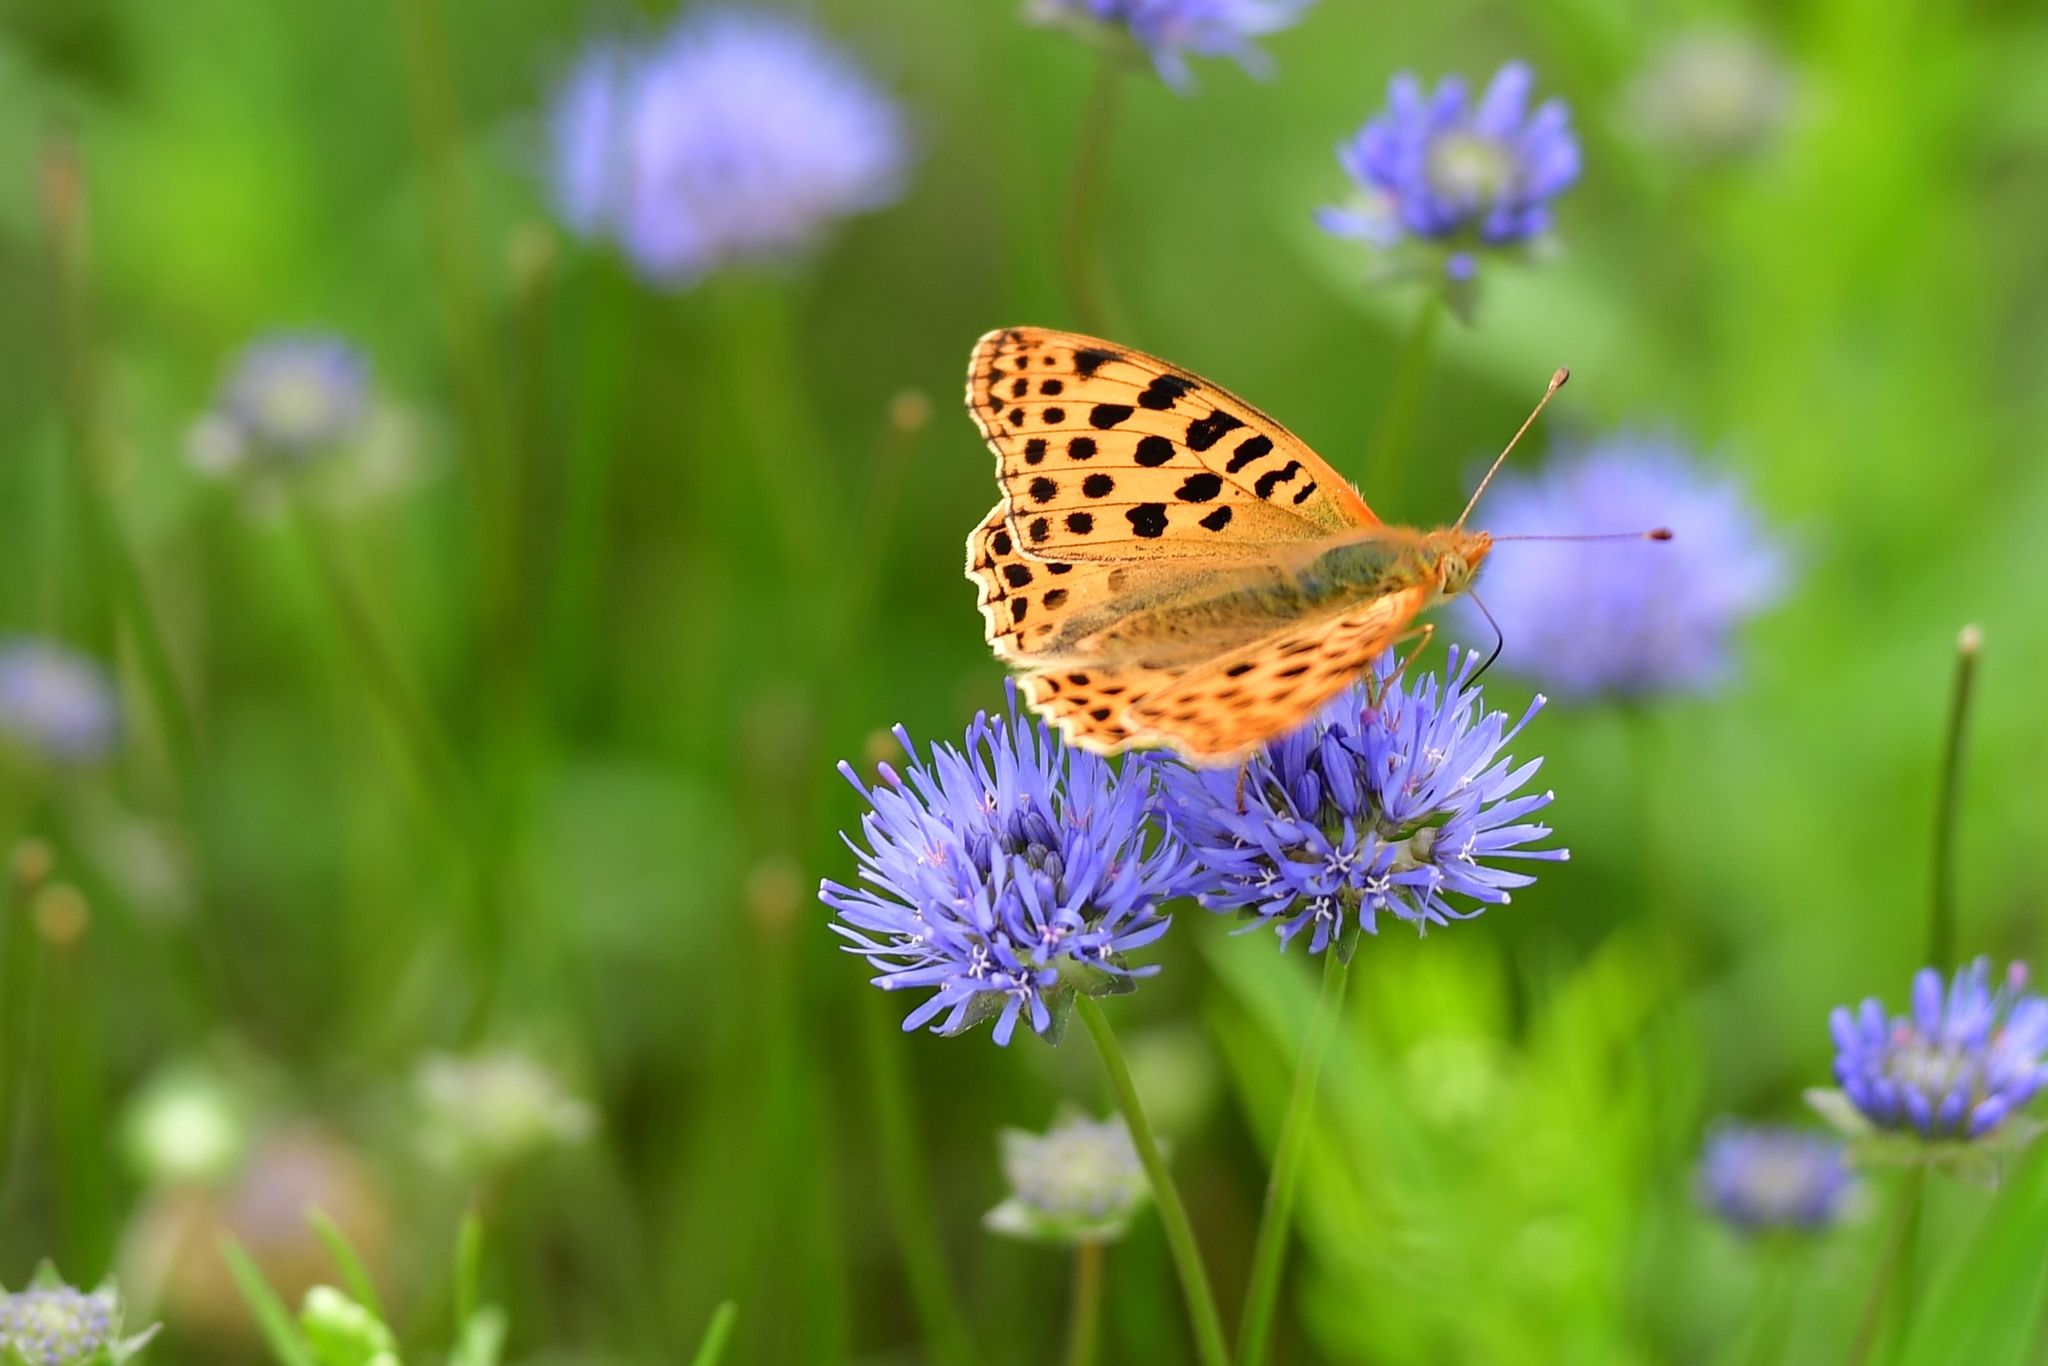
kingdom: Animalia
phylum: Arthropoda
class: Insecta
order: Lepidoptera
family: Nymphalidae
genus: Issoria
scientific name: Issoria lathonia
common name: Queen of spain fritillary
